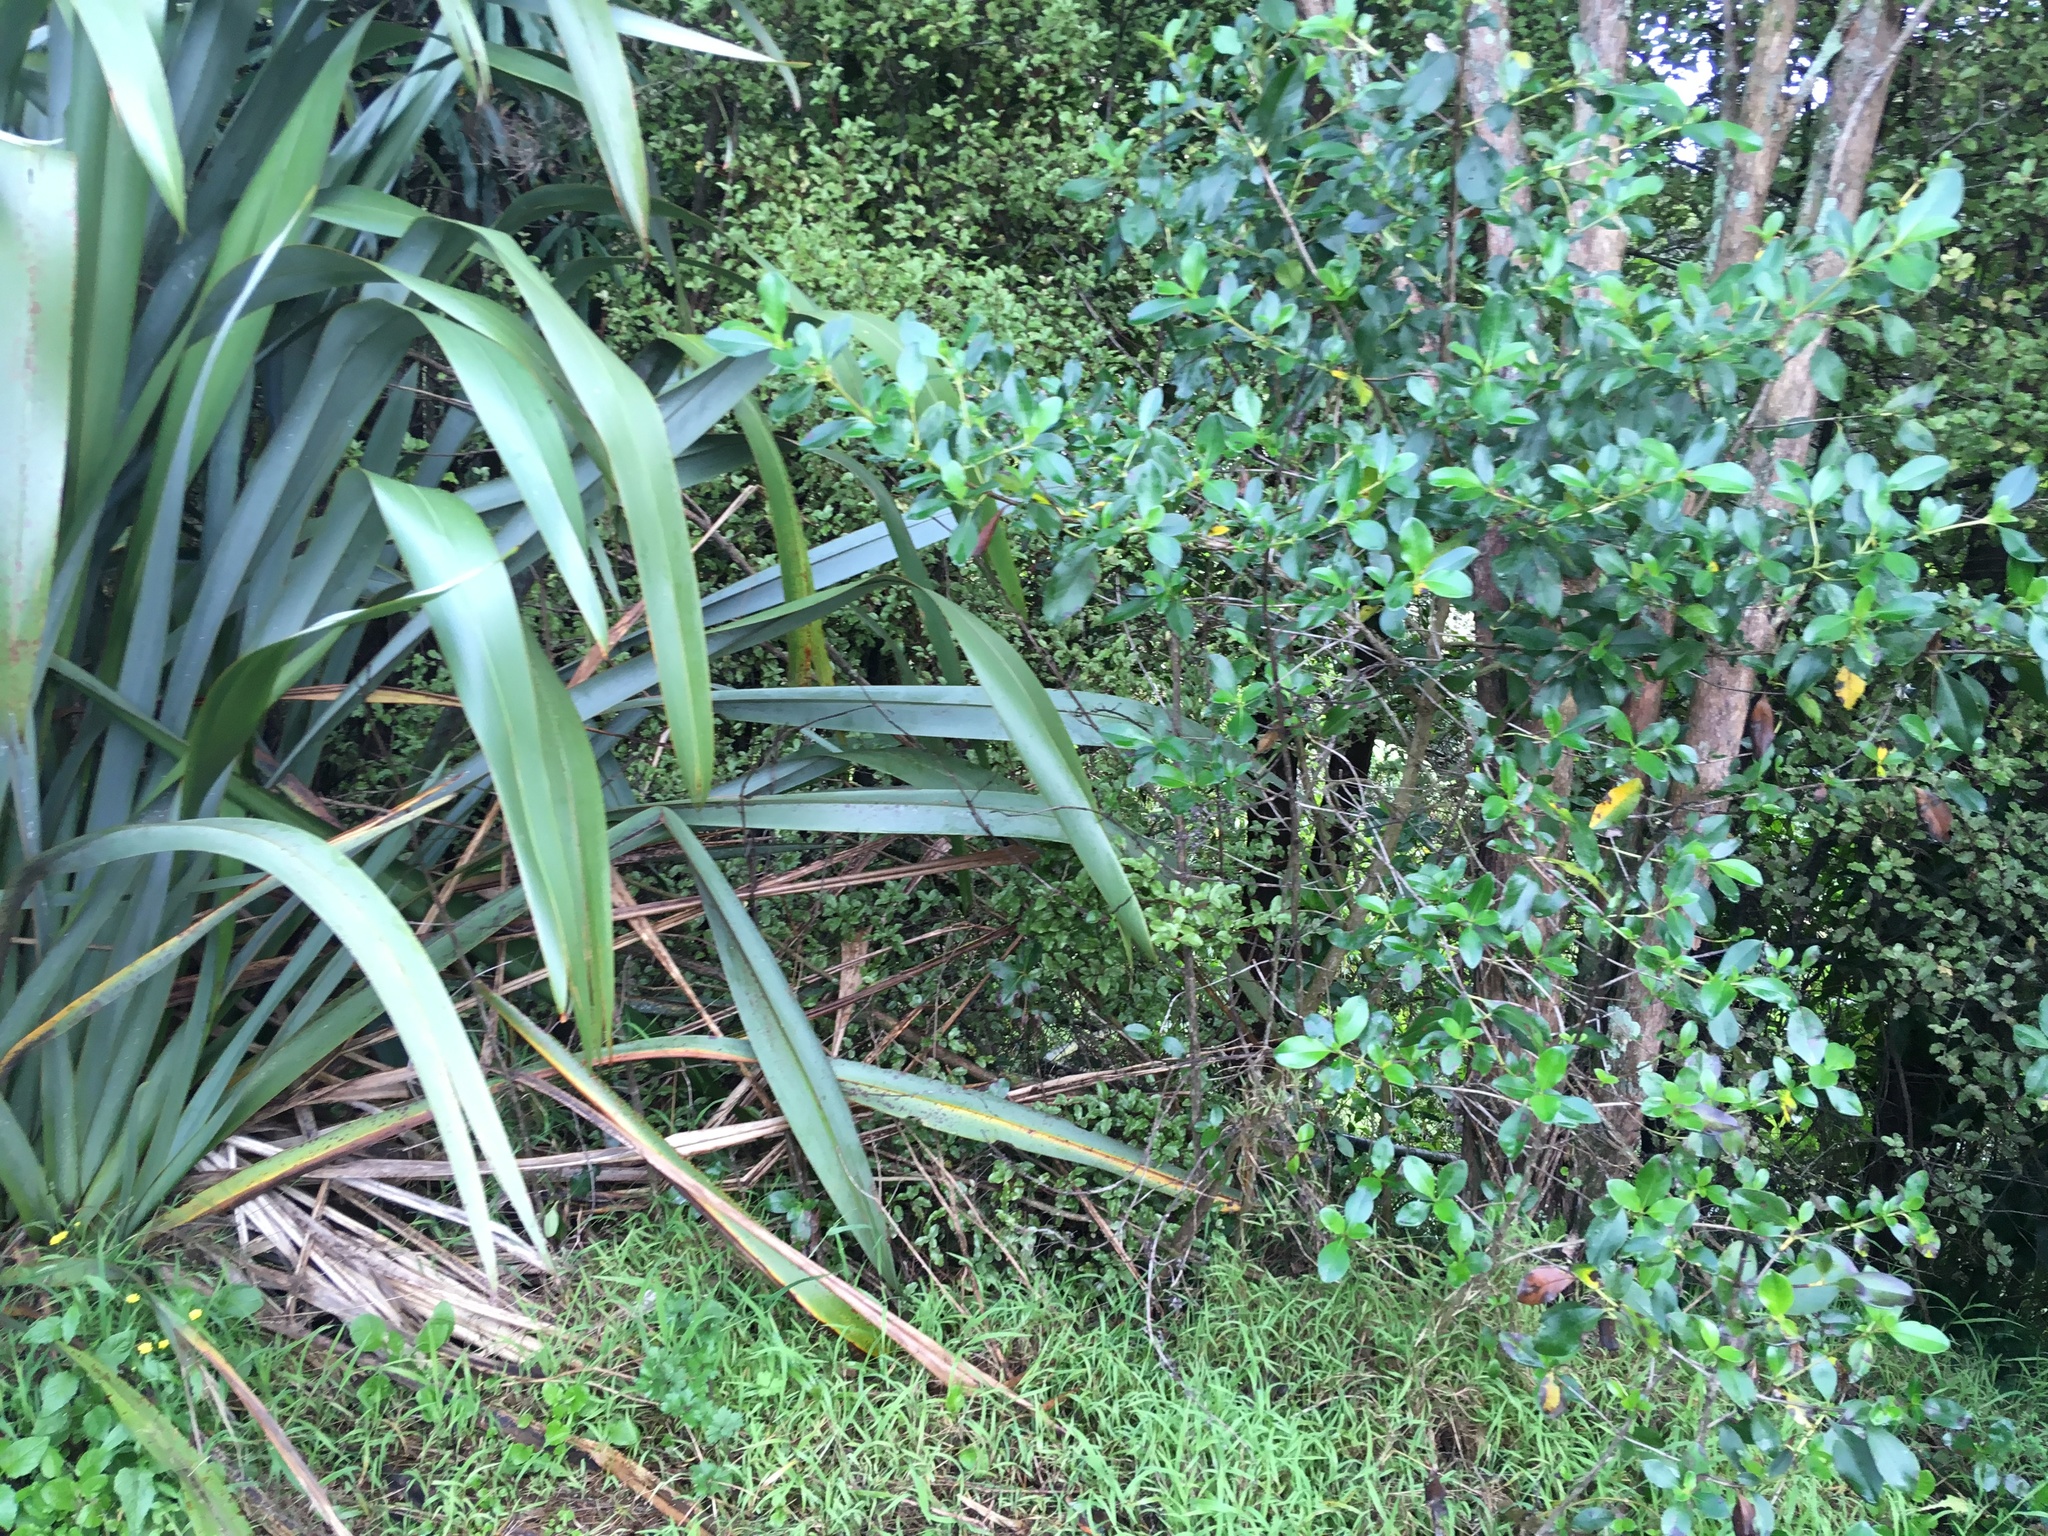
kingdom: Plantae
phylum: Tracheophyta
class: Magnoliopsida
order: Gentianales
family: Rubiaceae
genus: Coprosma
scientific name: Coprosma robusta
